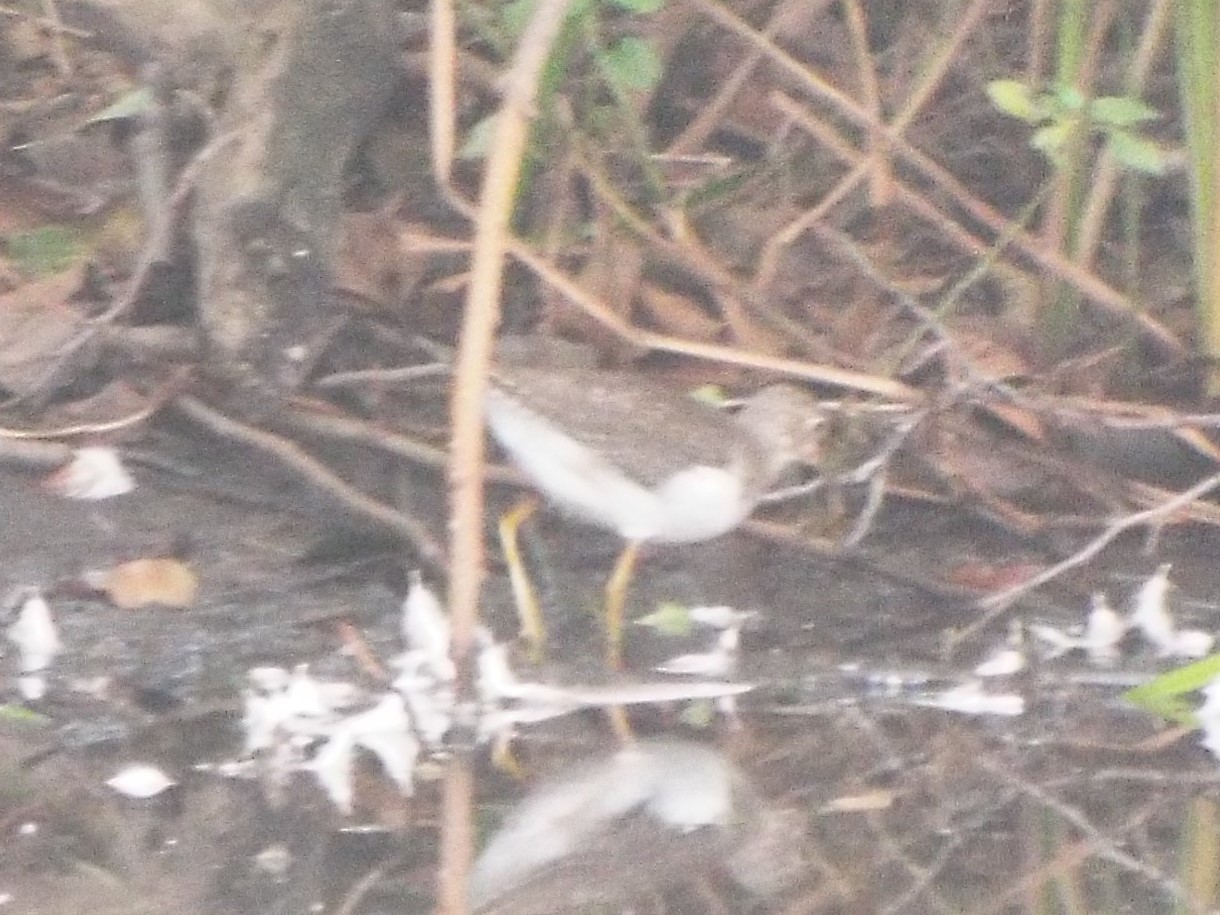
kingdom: Animalia
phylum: Chordata
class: Aves
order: Charadriiformes
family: Scolopacidae
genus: Tringa
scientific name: Tringa solitaria
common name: Solitary sandpiper
